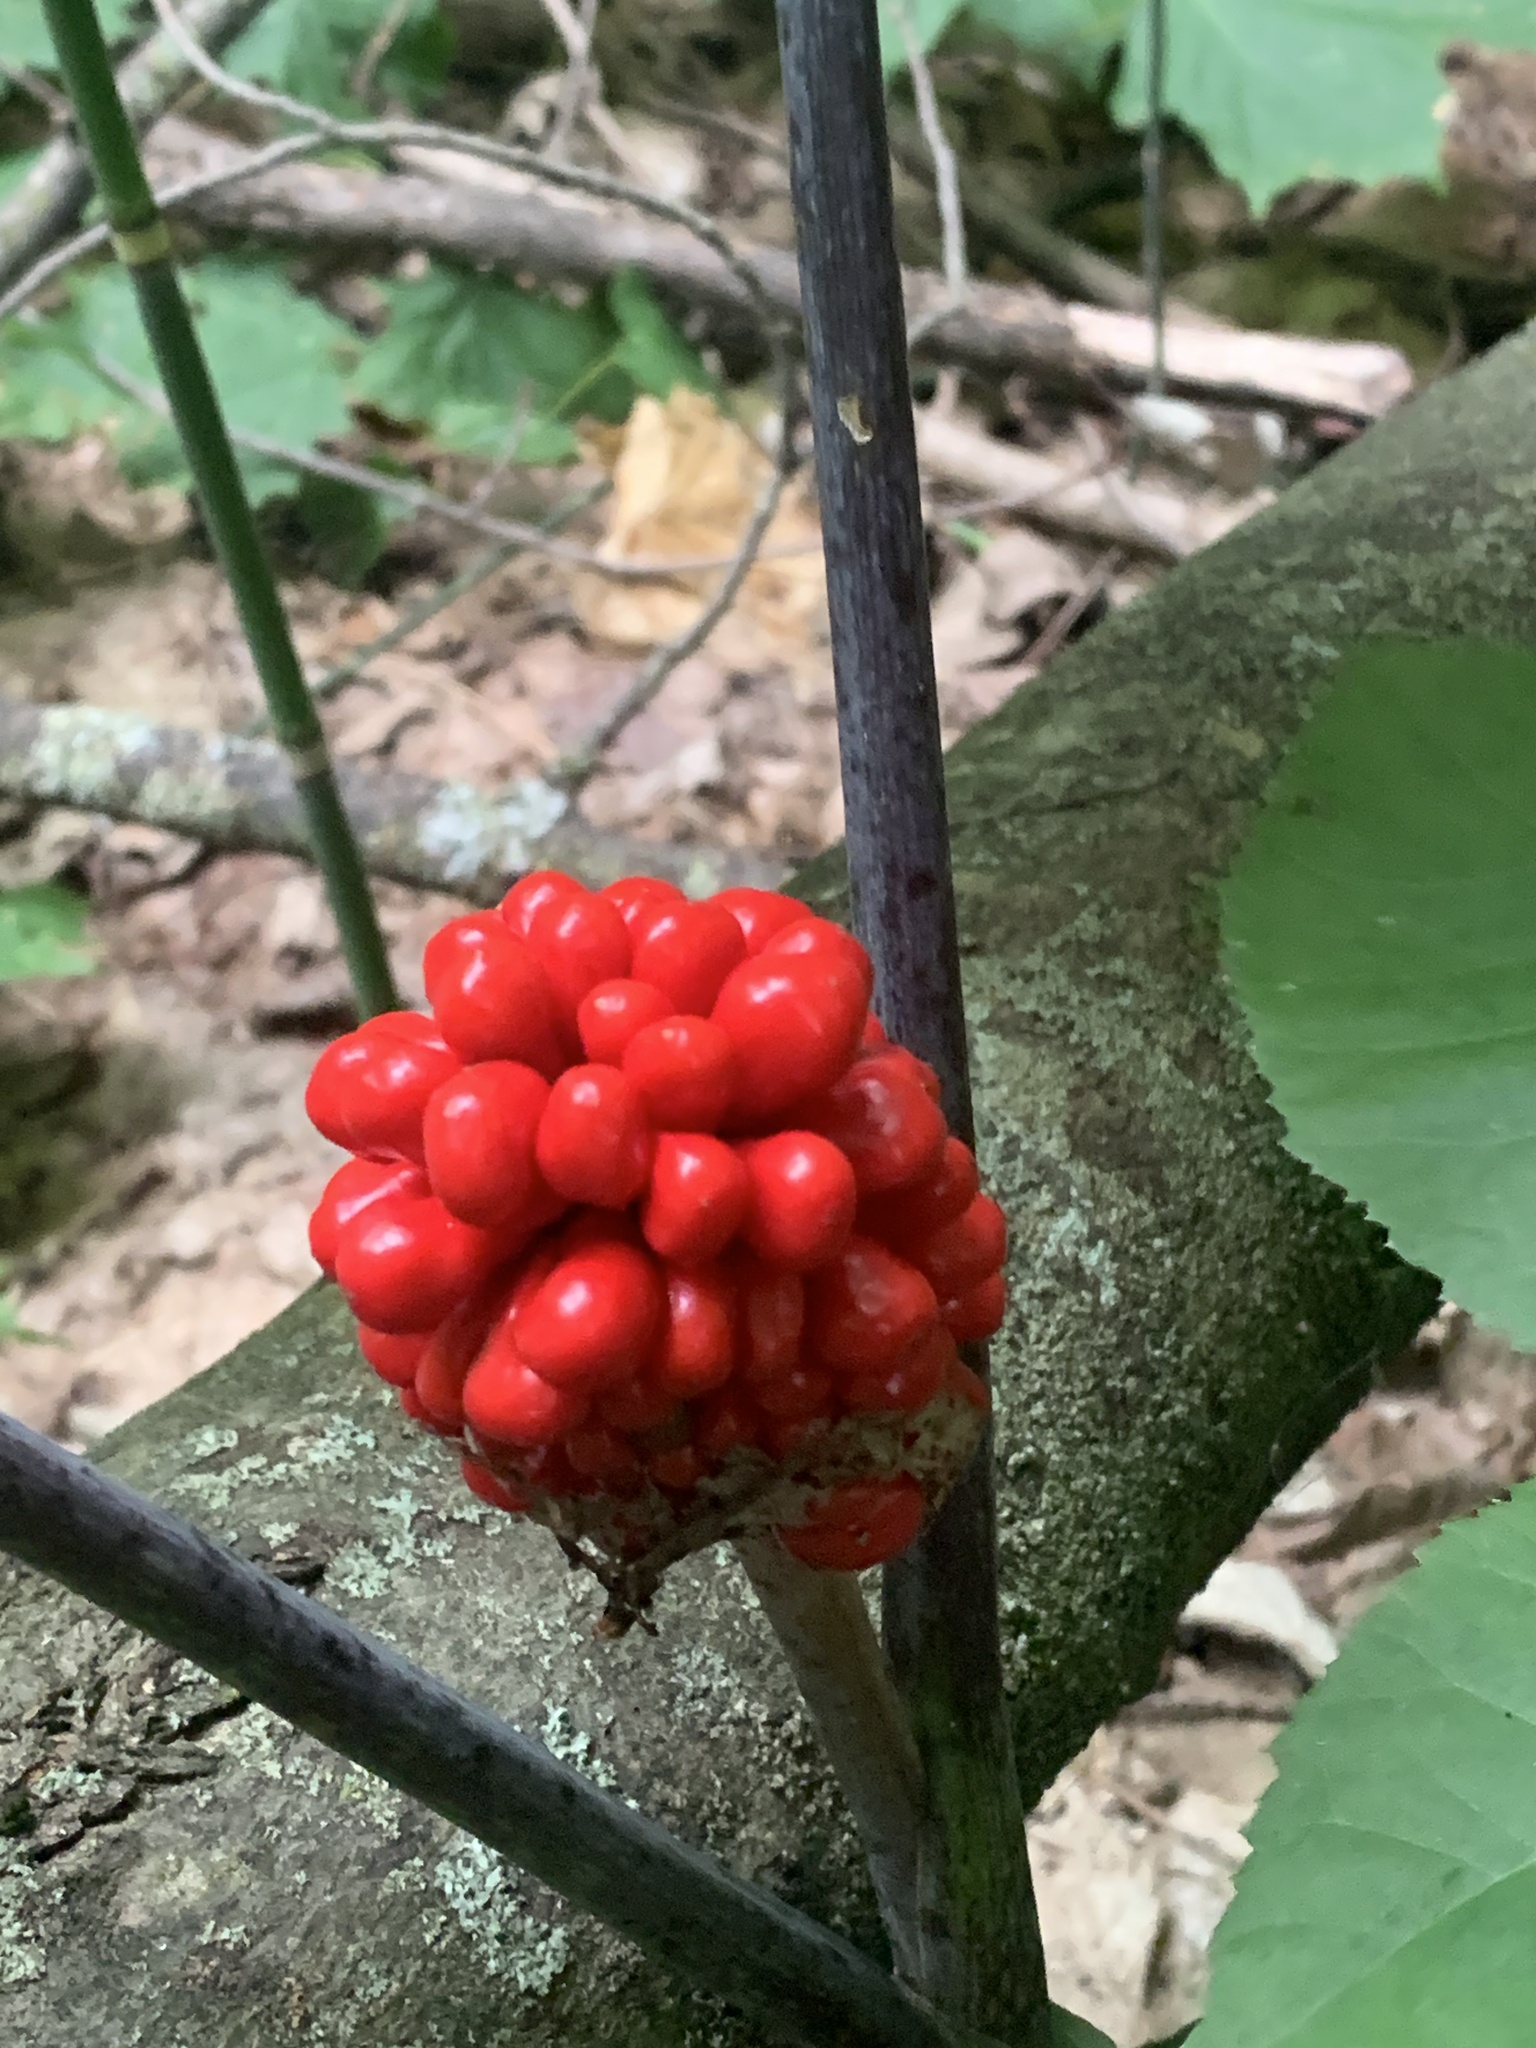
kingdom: Plantae
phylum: Tracheophyta
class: Liliopsida
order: Alismatales
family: Araceae
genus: Arisaema
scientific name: Arisaema triphyllum
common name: Jack-in-the-pulpit
